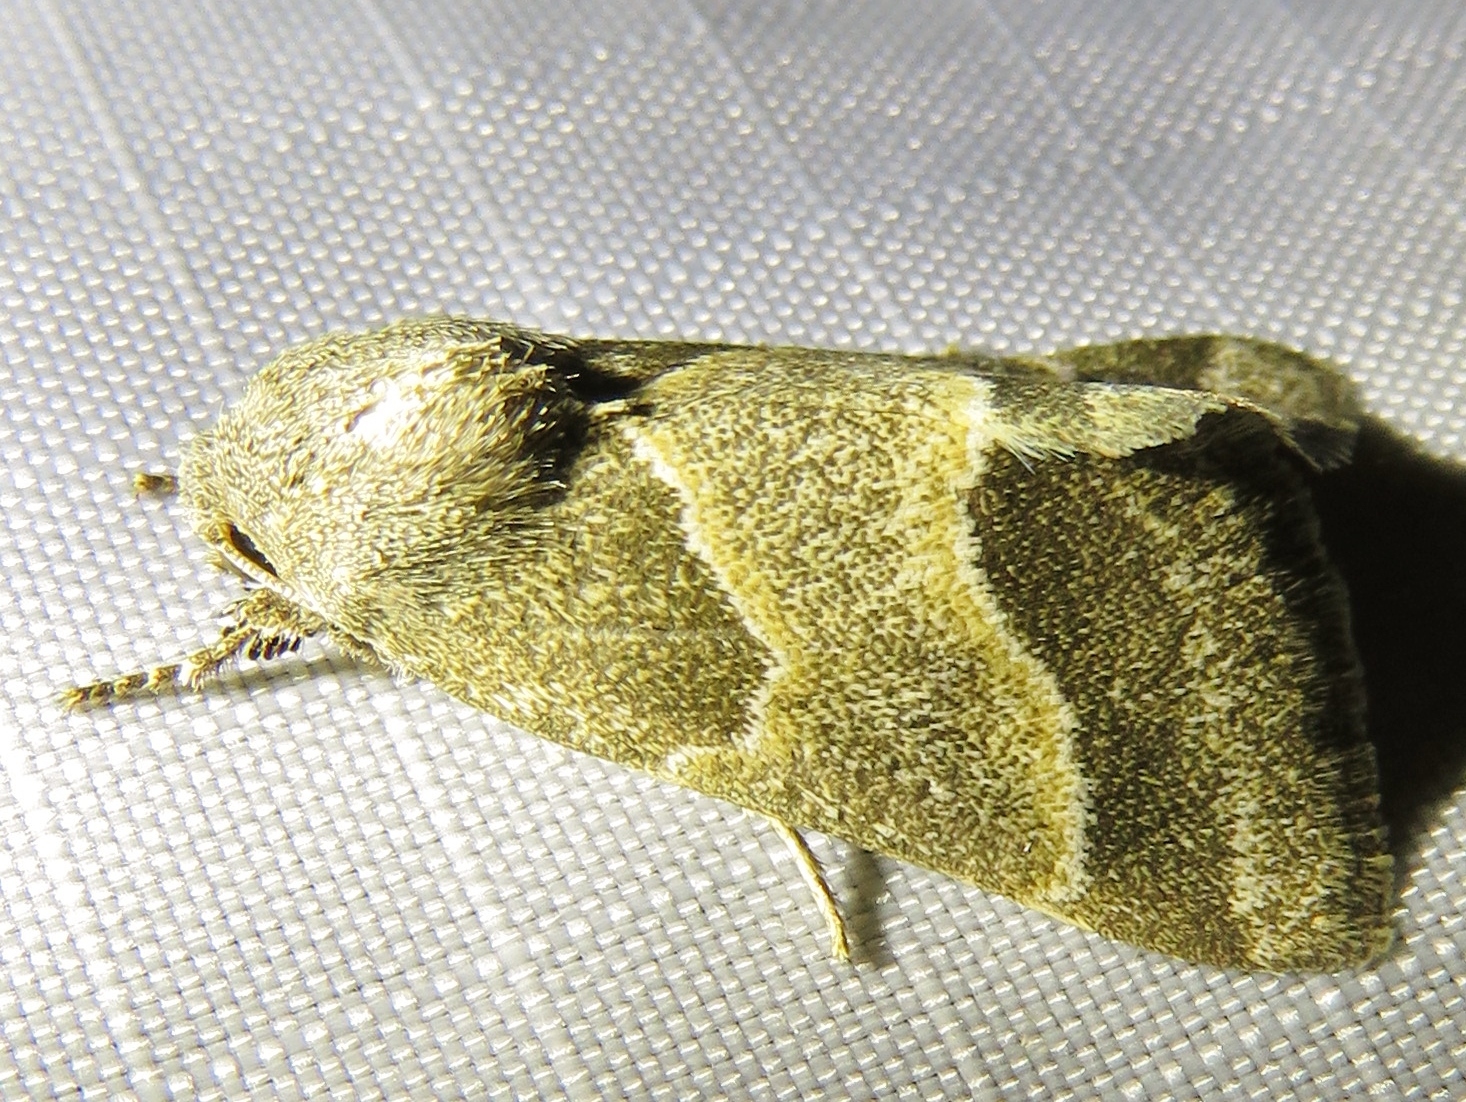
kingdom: Animalia
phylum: Arthropoda
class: Insecta
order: Lepidoptera
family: Noctuidae
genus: Schinia
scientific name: Schinia gracilenta
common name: Slender flower moth
